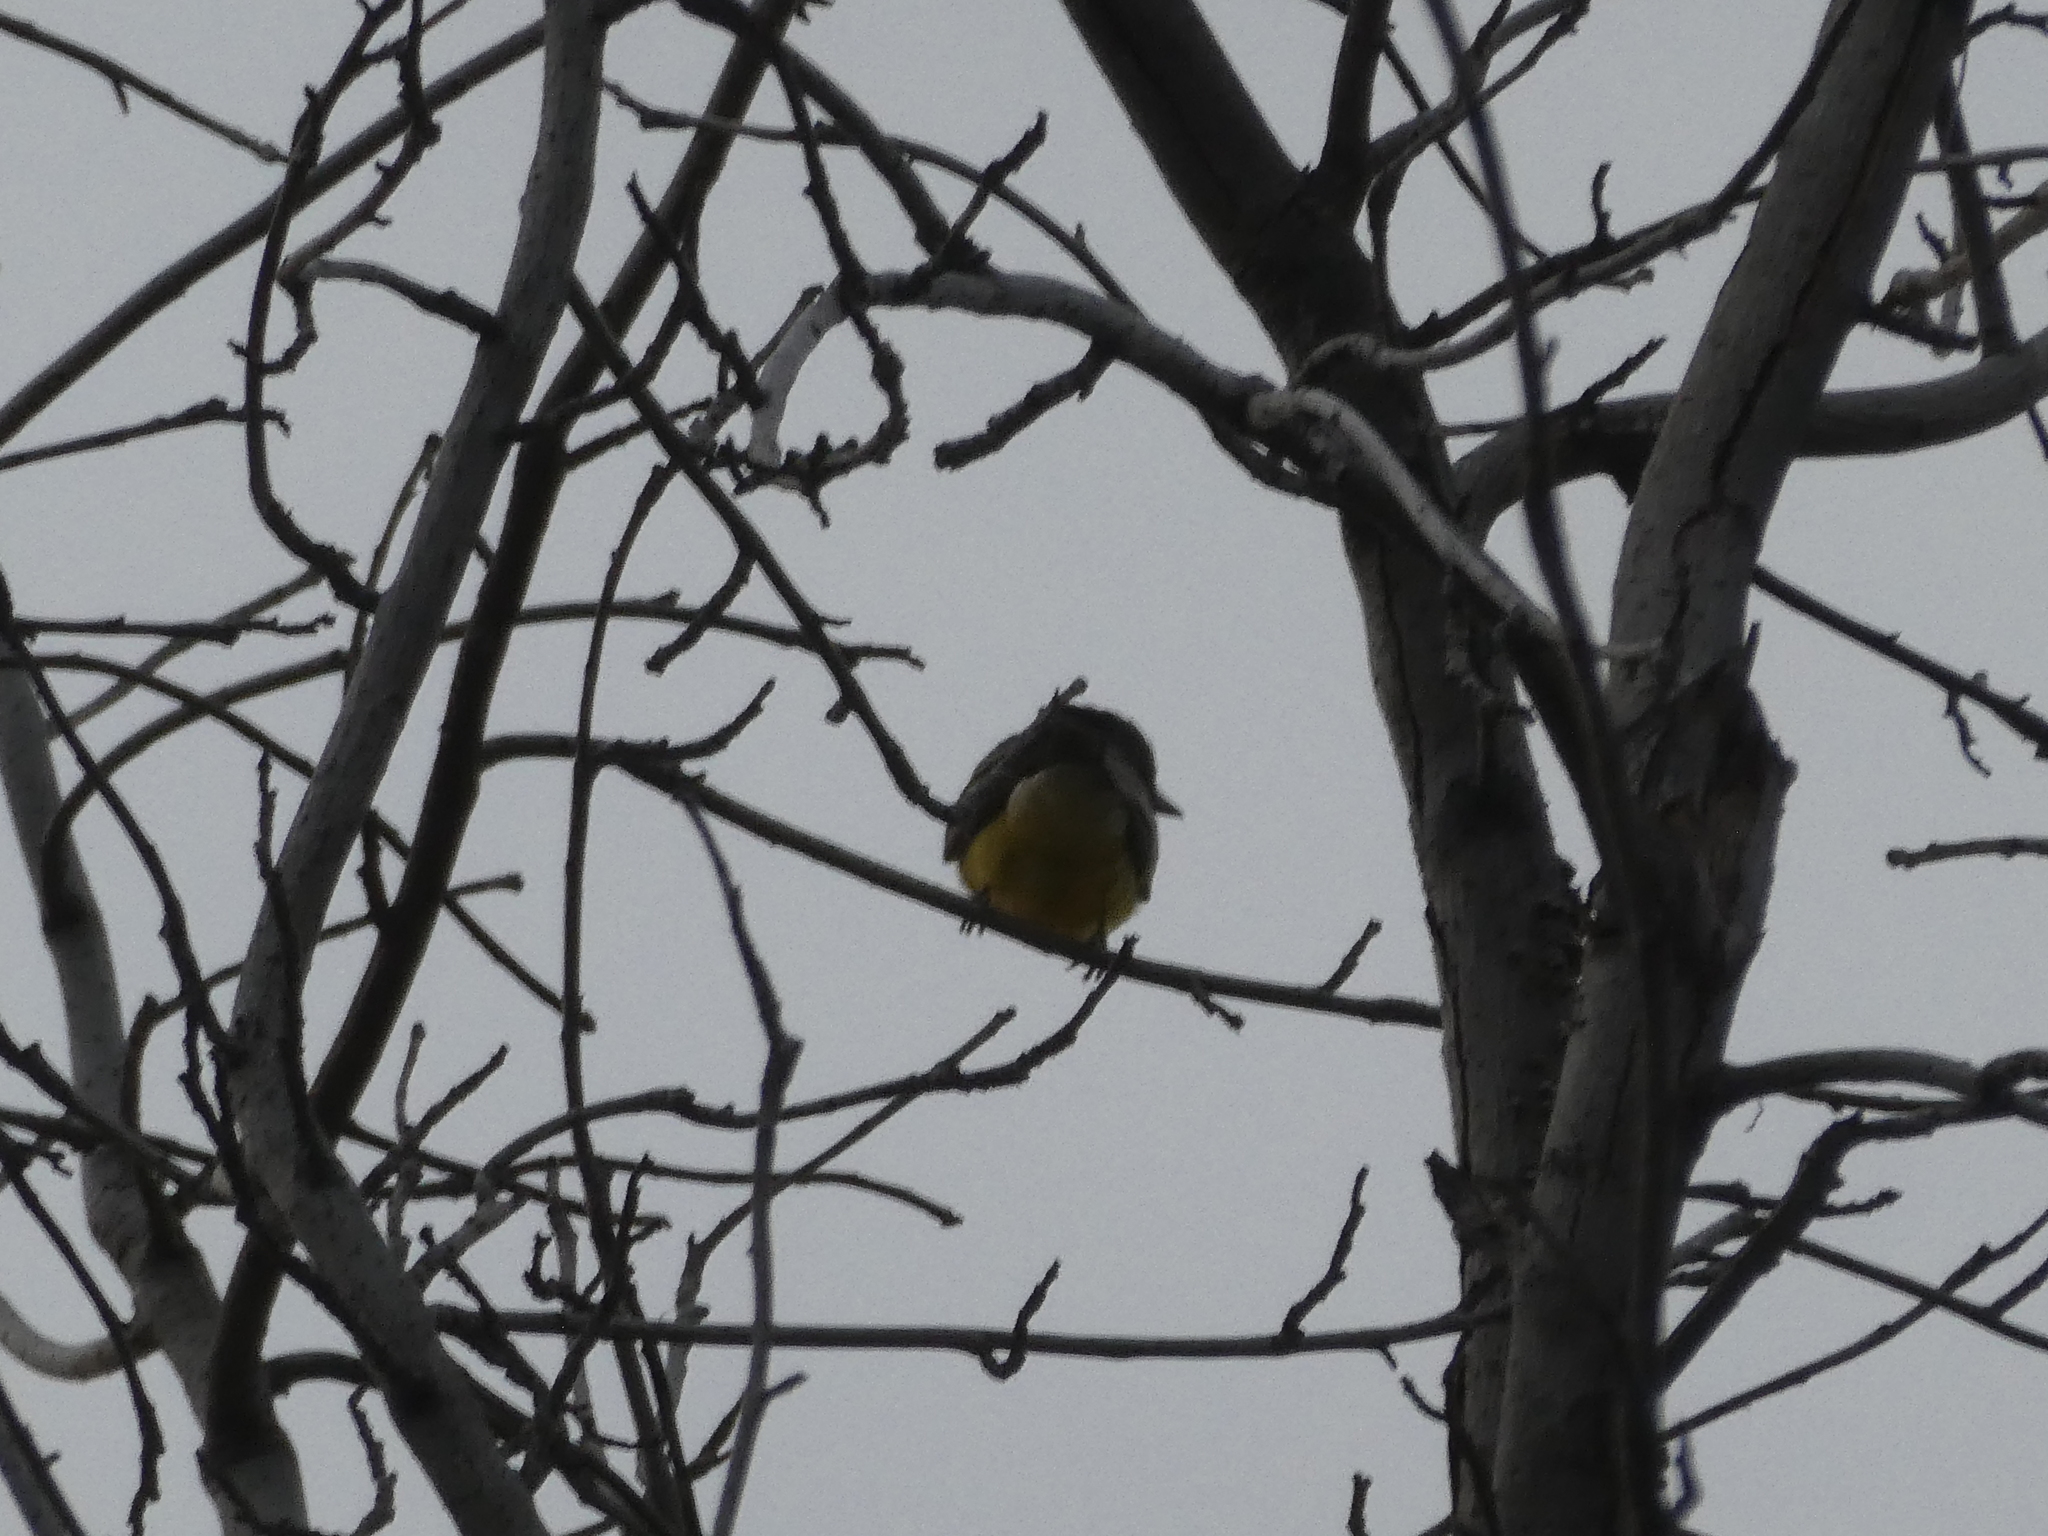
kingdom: Animalia
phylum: Chordata
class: Aves
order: Passeriformes
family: Tyrannidae
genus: Tyrannus
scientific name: Tyrannus vociferans
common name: Cassin's kingbird
